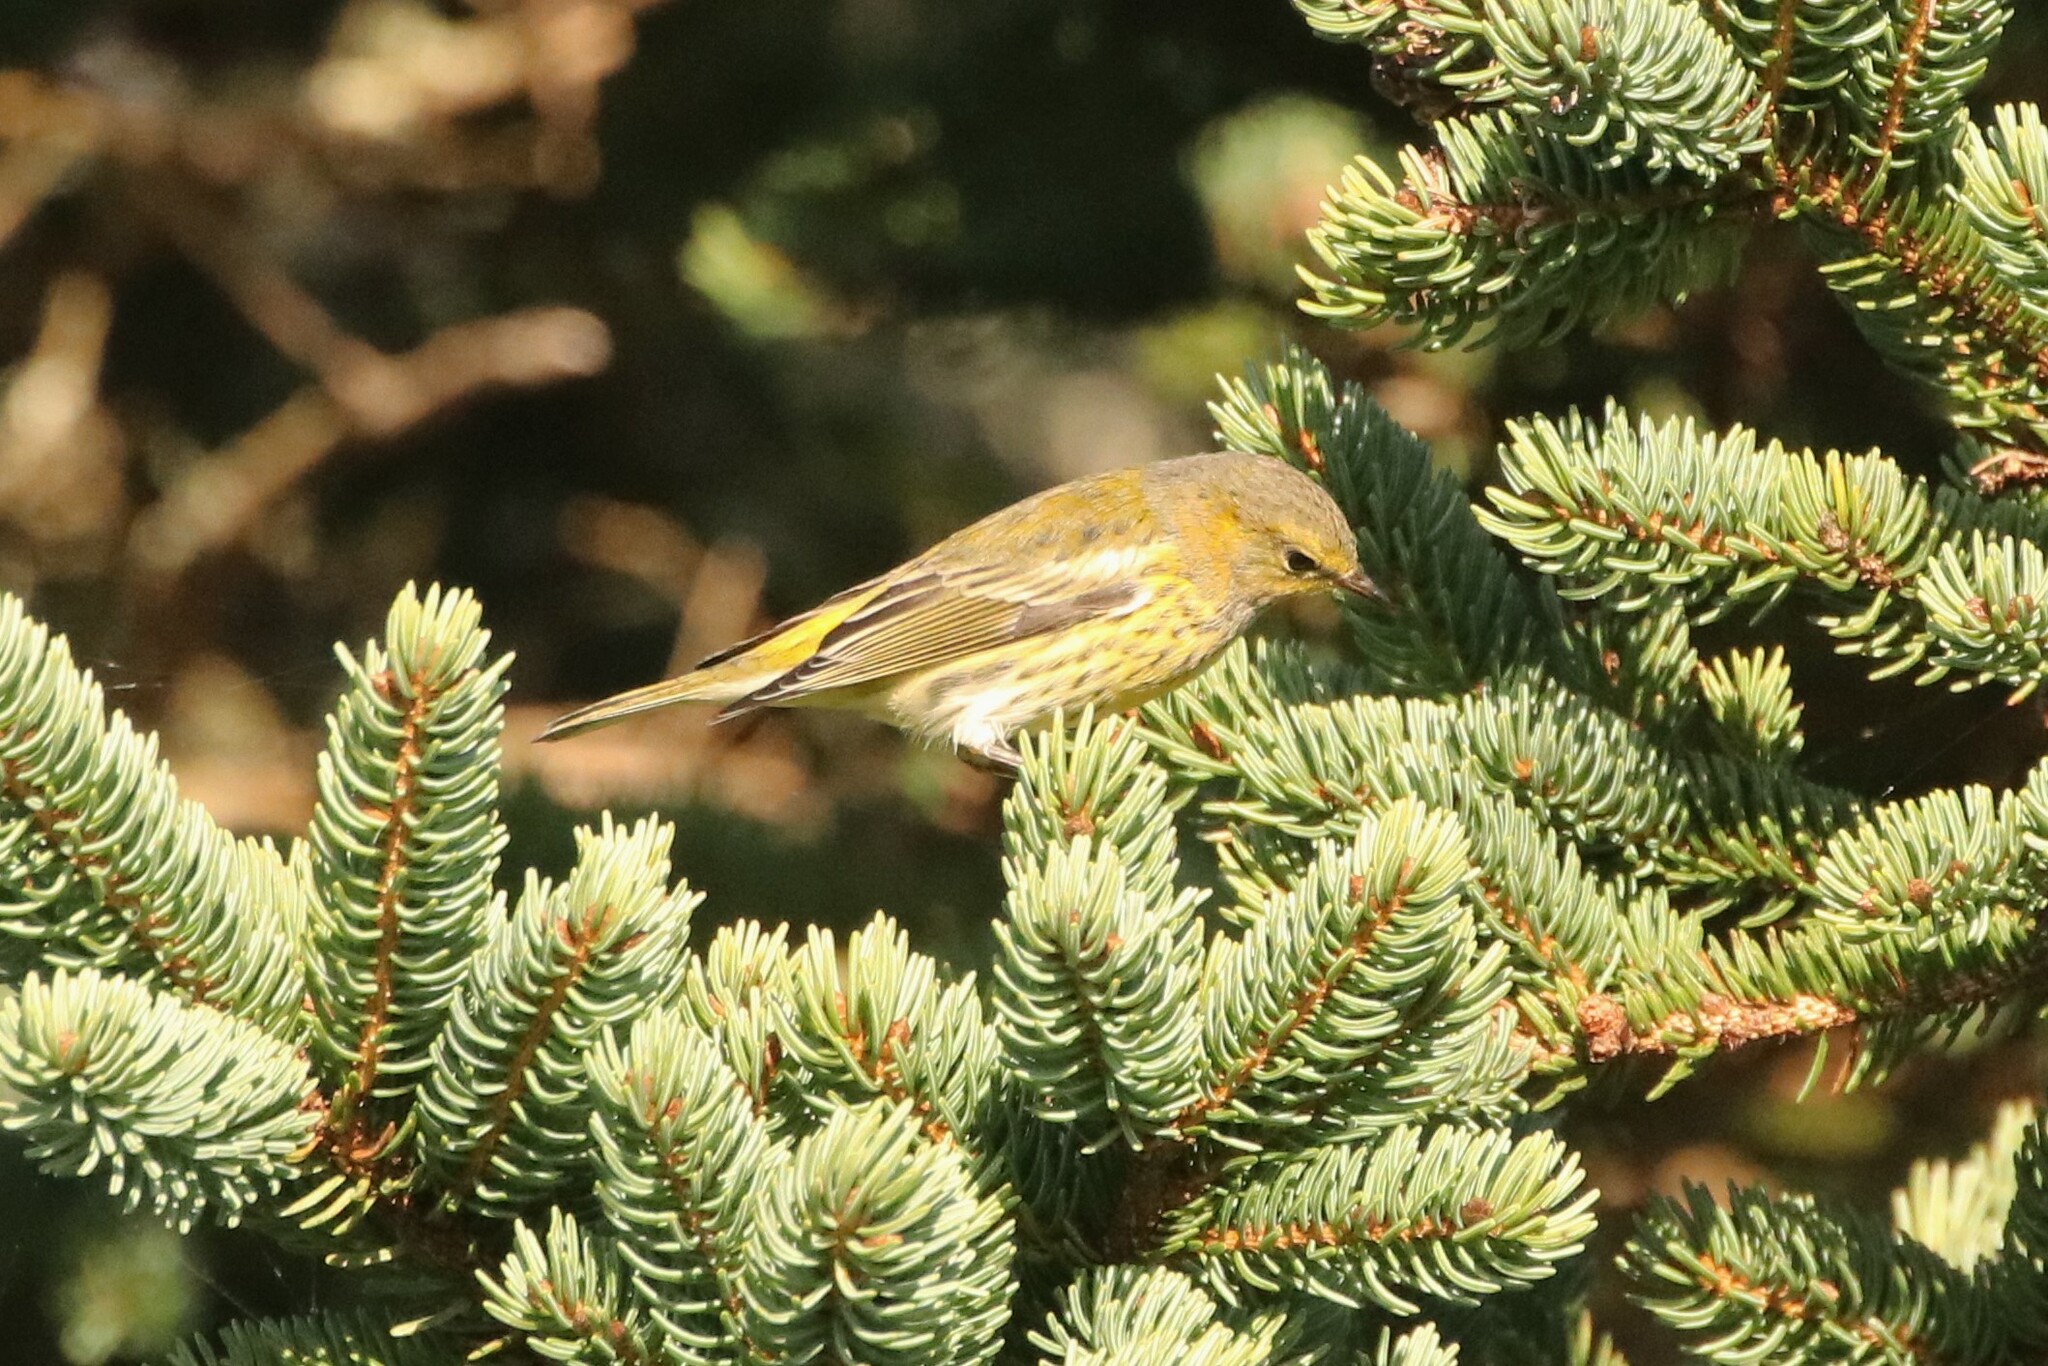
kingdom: Animalia
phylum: Chordata
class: Aves
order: Passeriformes
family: Parulidae
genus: Setophaga
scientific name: Setophaga tigrina
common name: Cape may warbler
